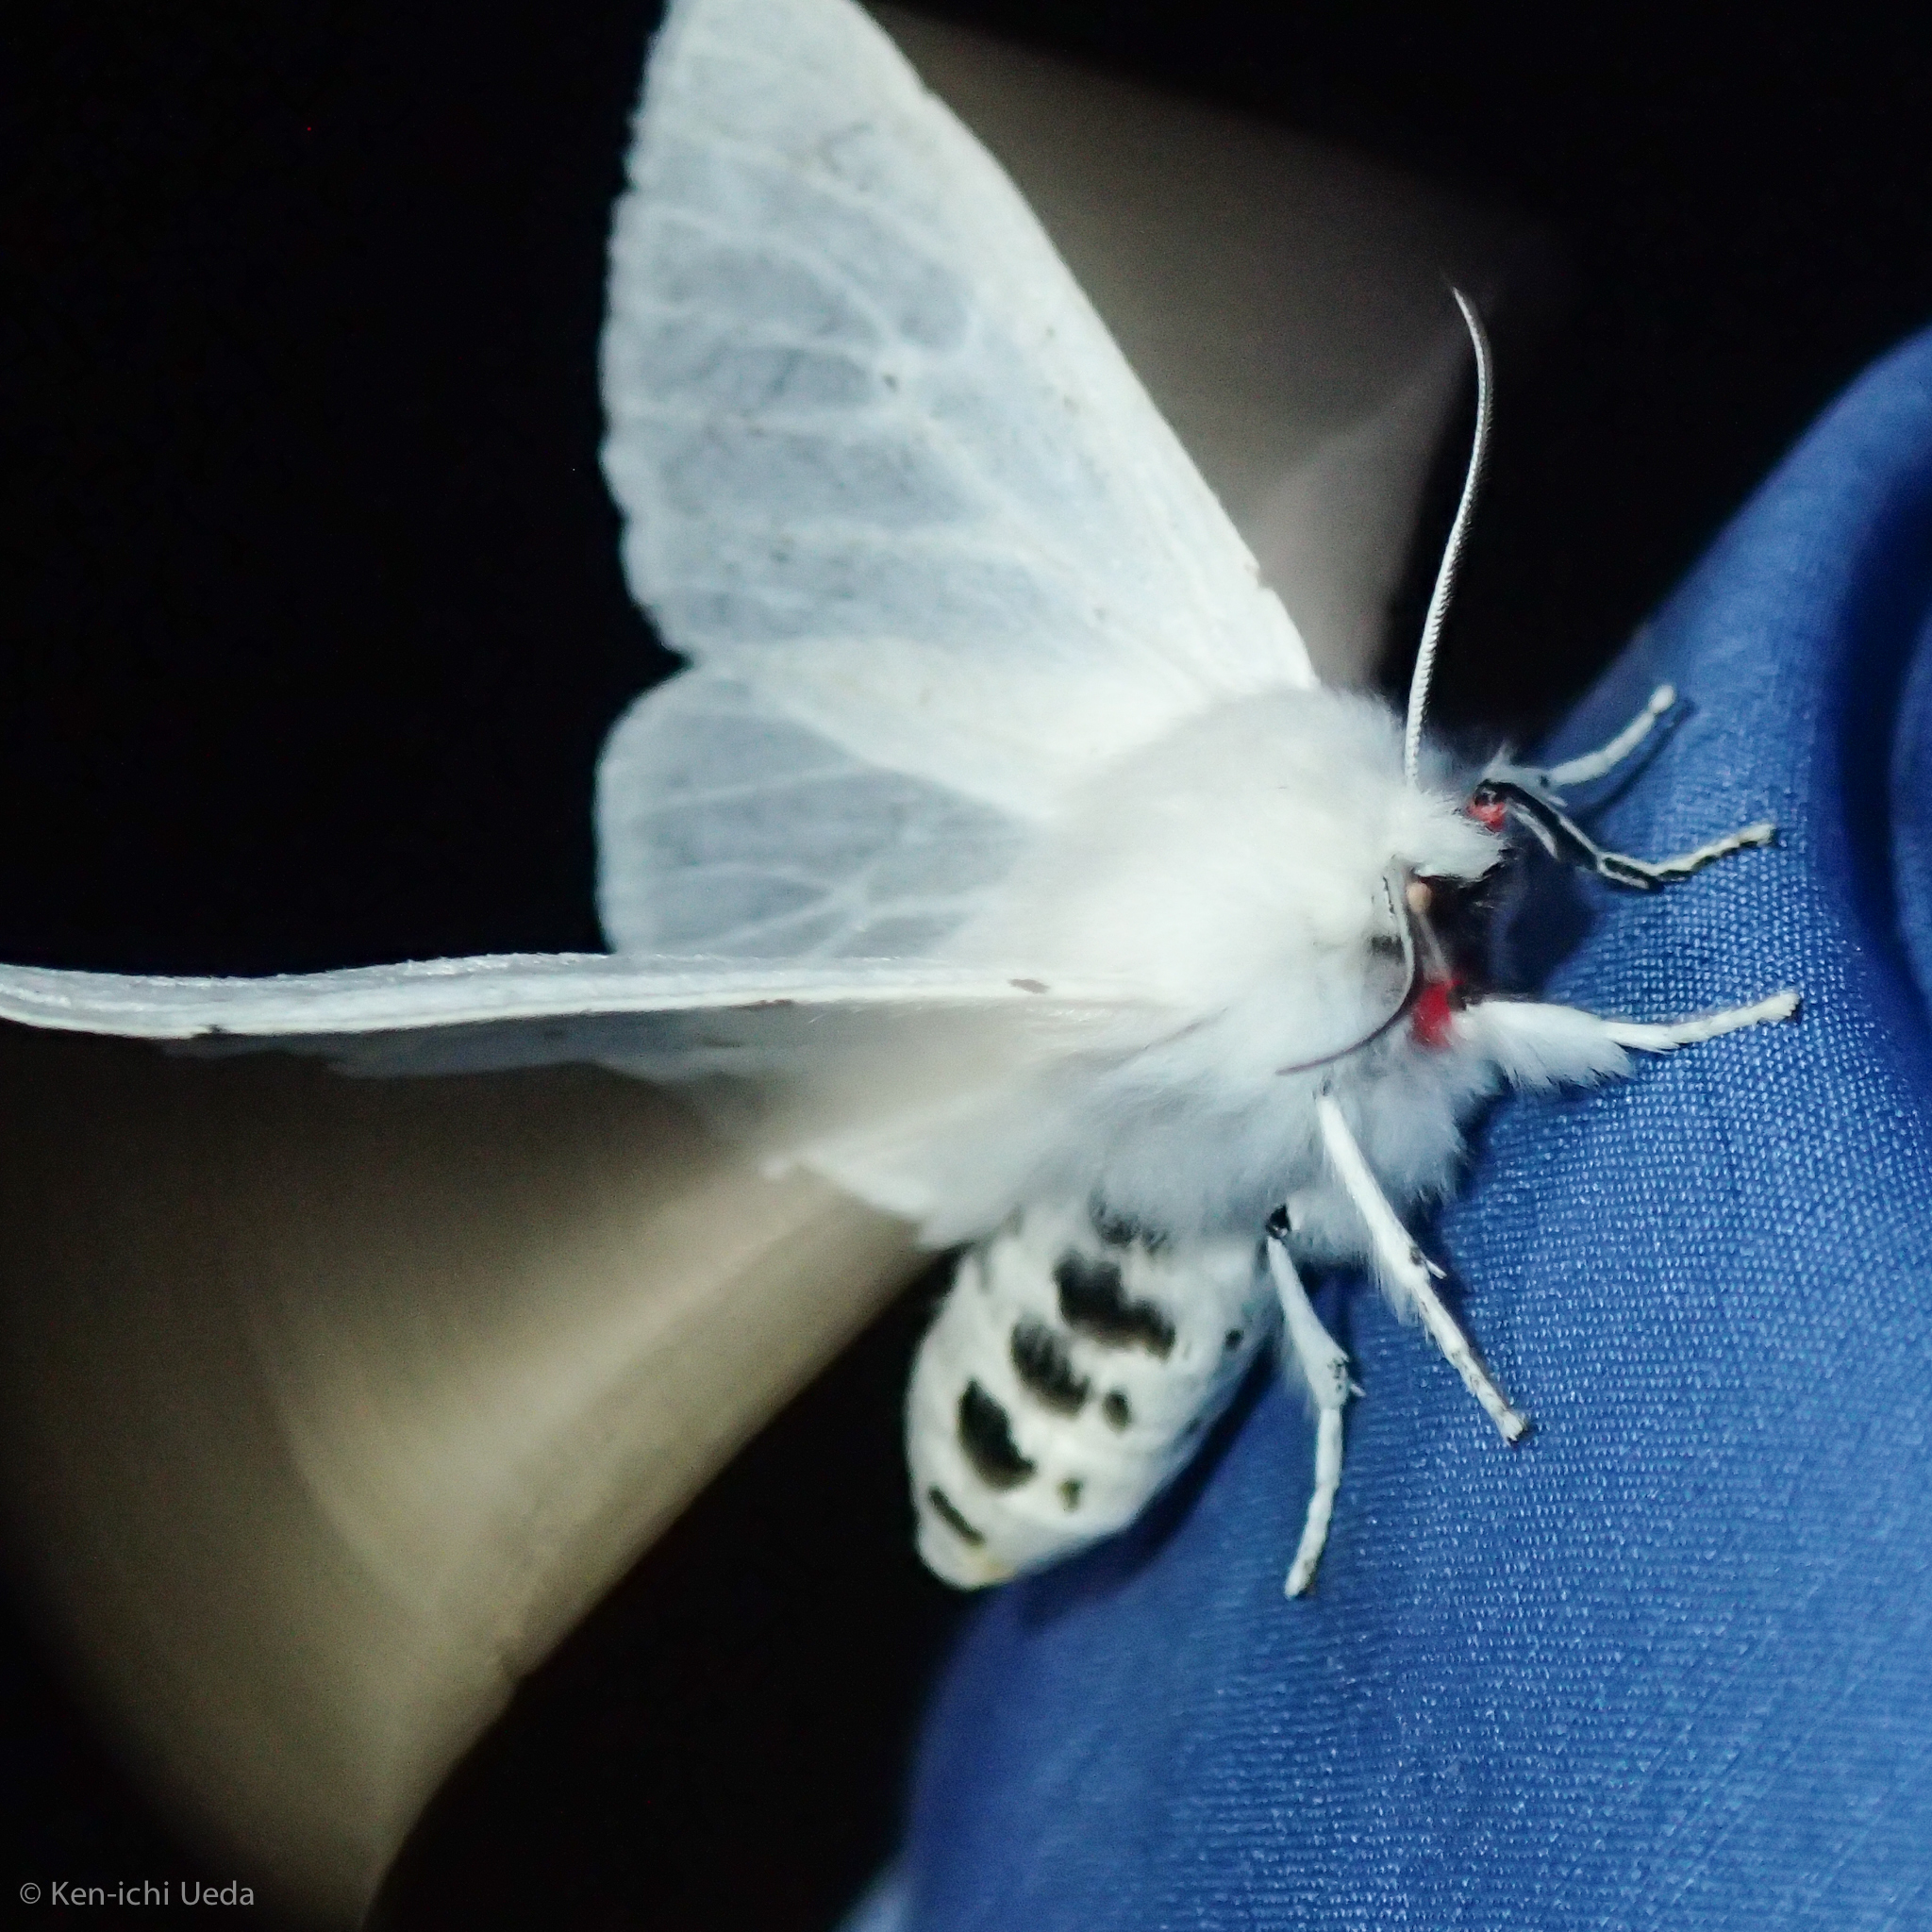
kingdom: Animalia
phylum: Arthropoda
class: Insecta
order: Lepidoptera
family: Erebidae
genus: Spilosoma
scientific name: Spilosoma vestalis
